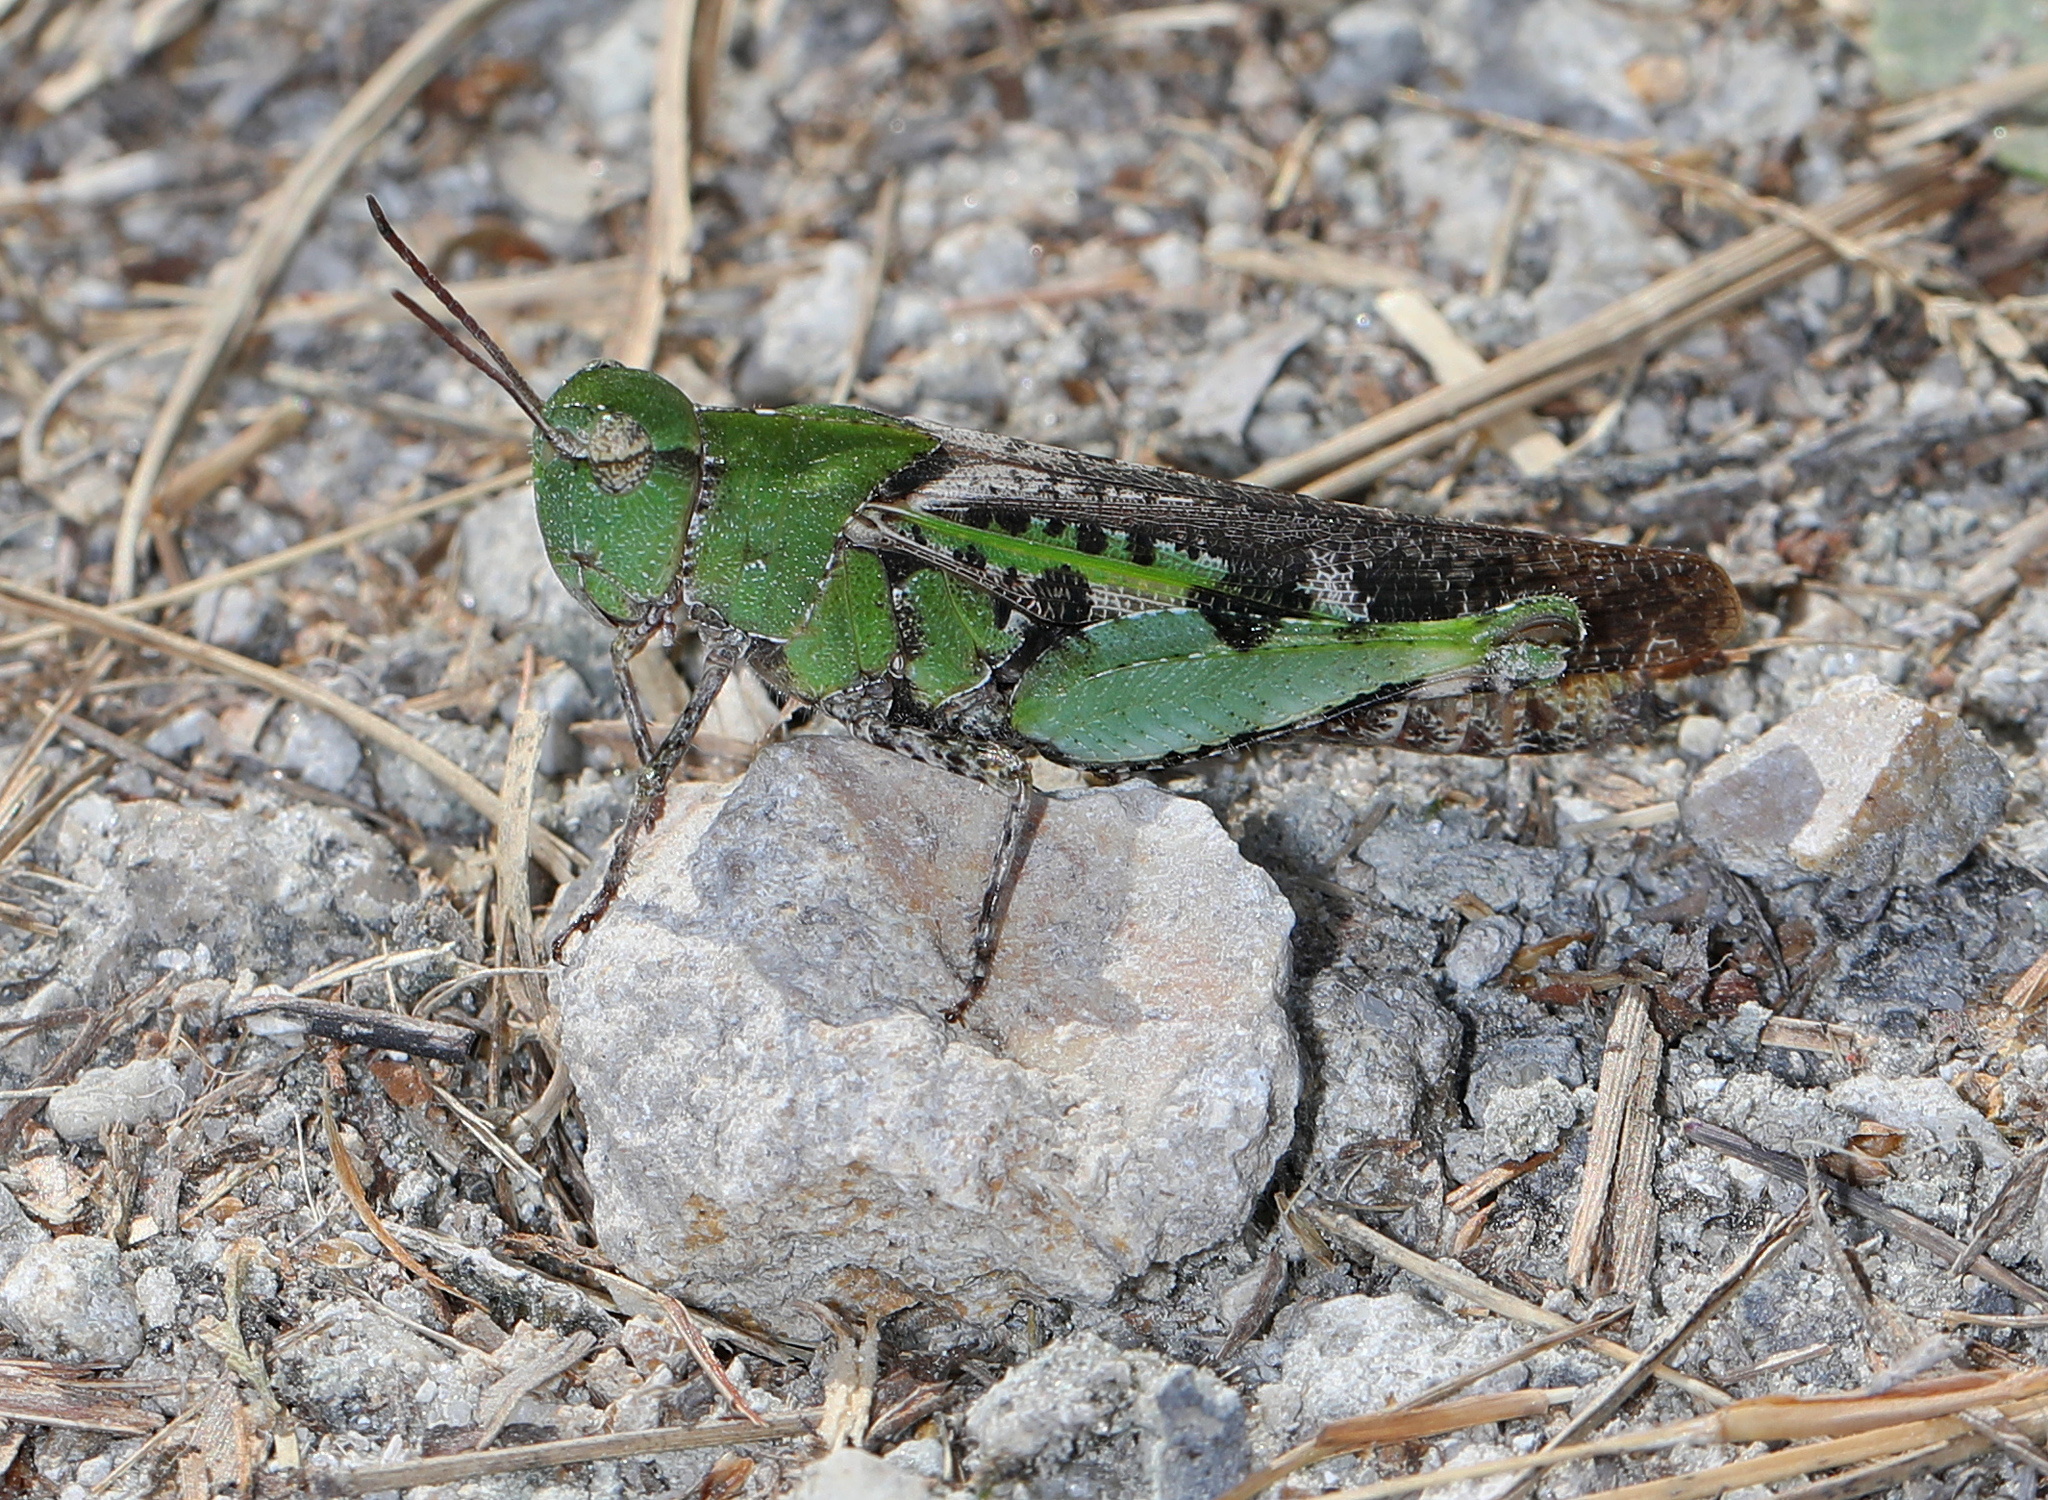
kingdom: Animalia
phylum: Arthropoda
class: Insecta
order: Orthoptera
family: Acrididae
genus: Chortophaga
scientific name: Chortophaga australior
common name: Southern green-striped grasshopper
